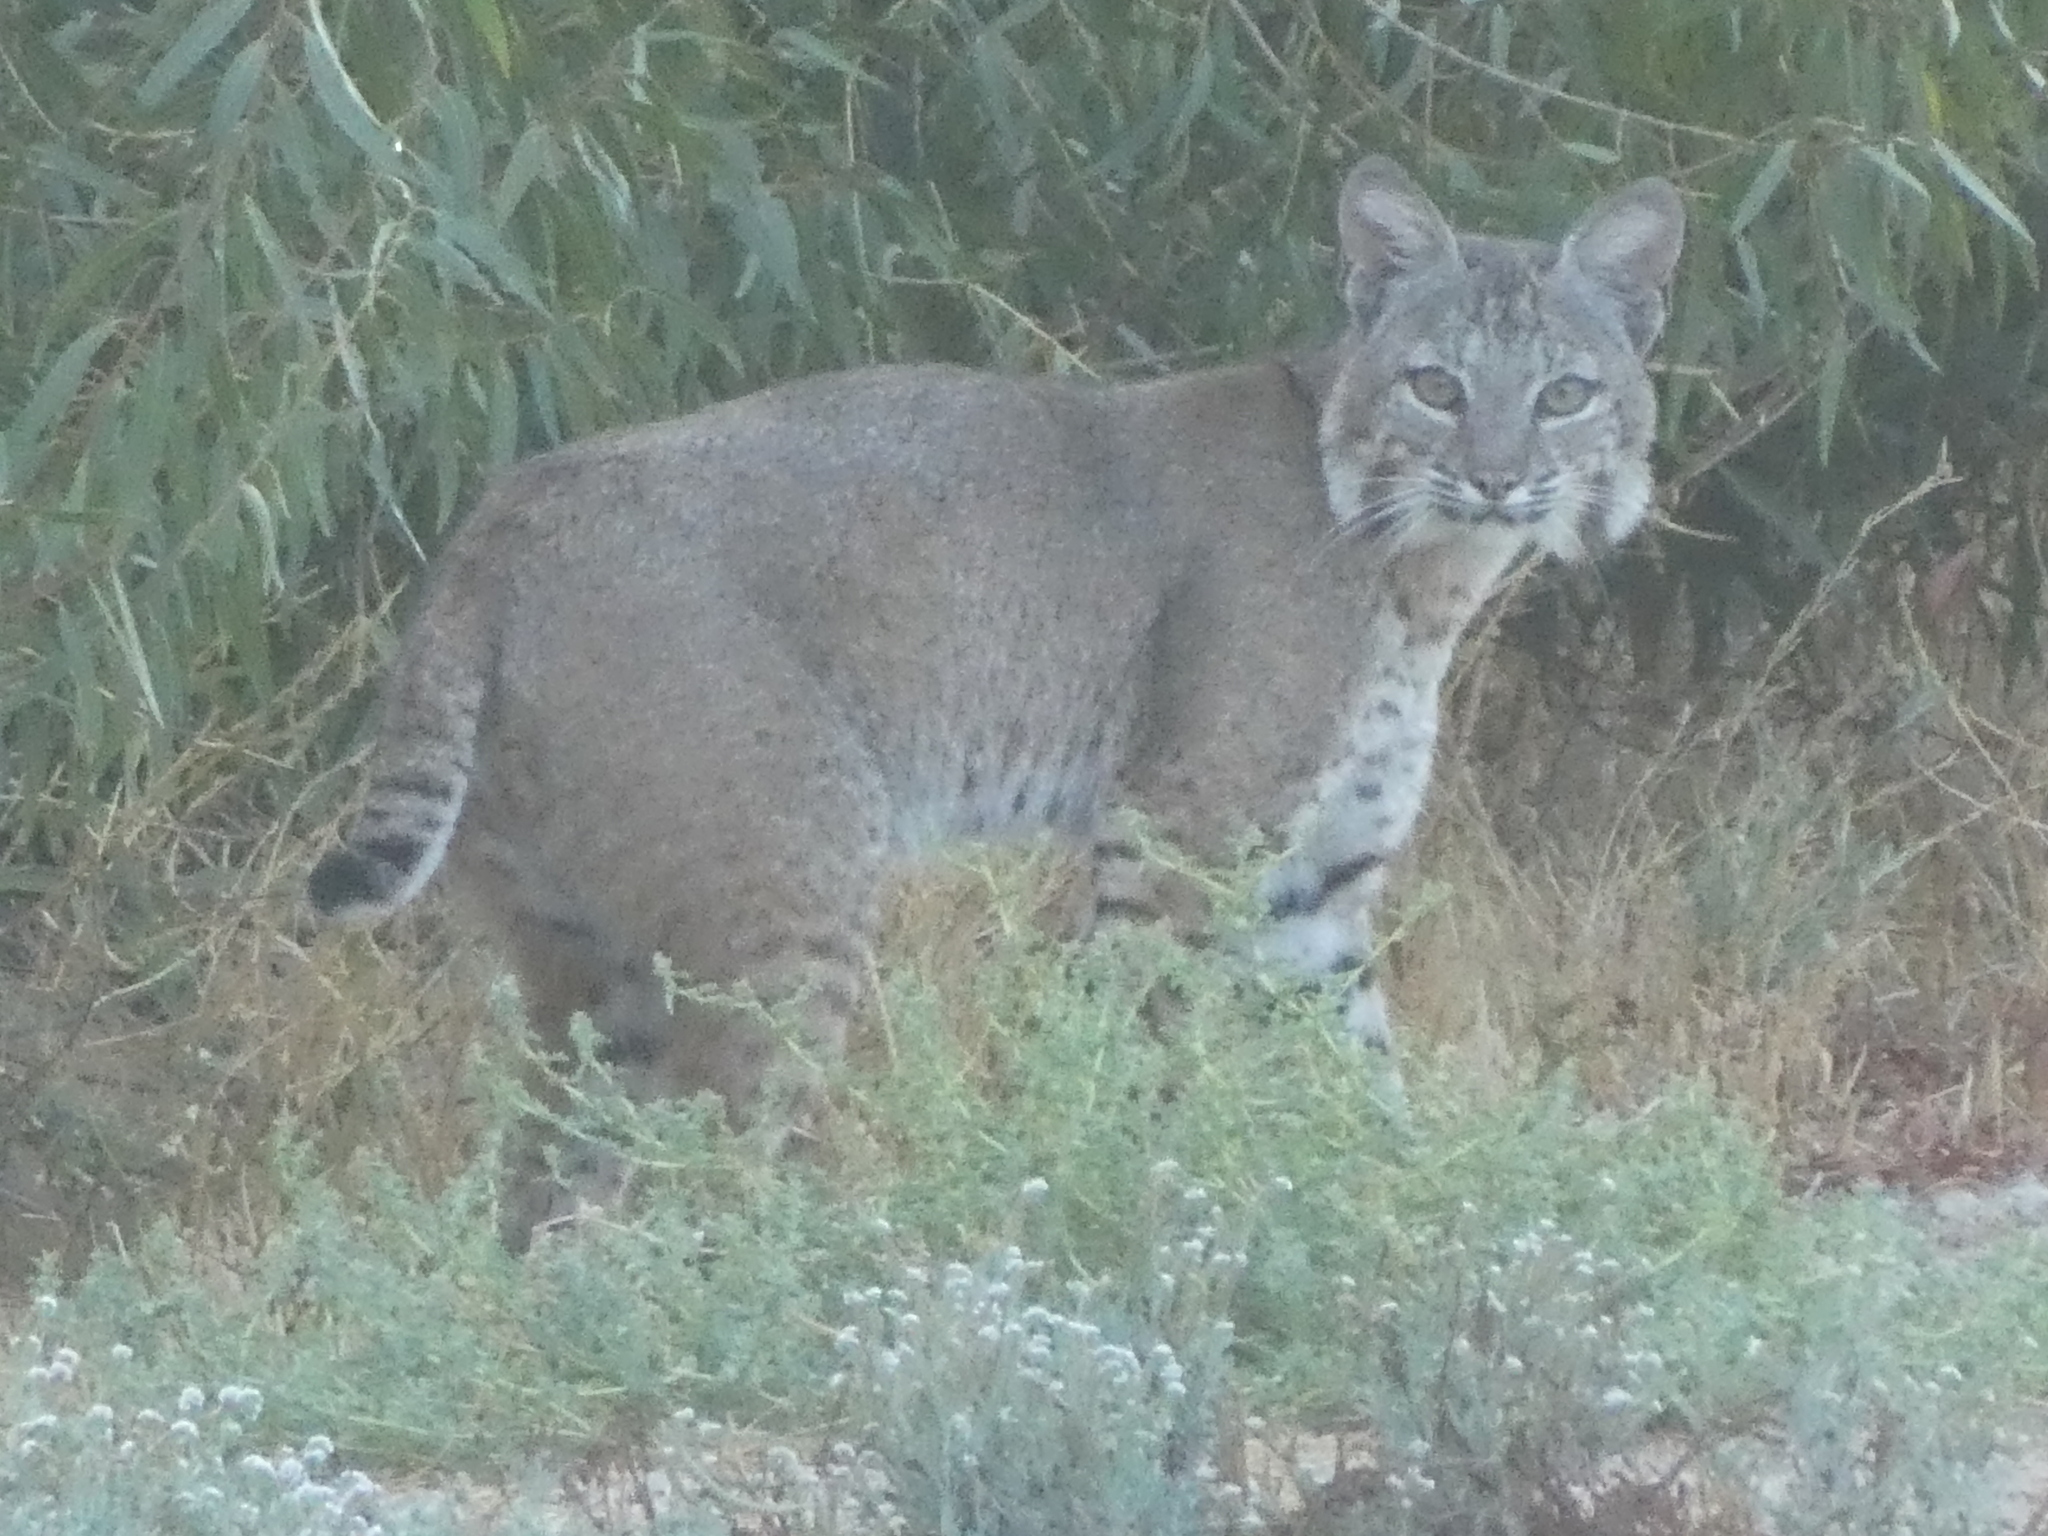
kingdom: Animalia
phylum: Chordata
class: Mammalia
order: Carnivora
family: Felidae
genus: Lynx
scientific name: Lynx rufus
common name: Bobcat
